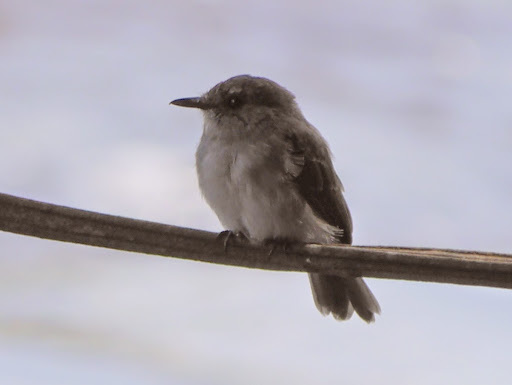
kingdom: Animalia
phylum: Chordata
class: Aves
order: Passeriformes
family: Muscicapidae
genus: Muscicapa
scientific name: Muscicapa cassini
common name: Cassin's flycatcher
